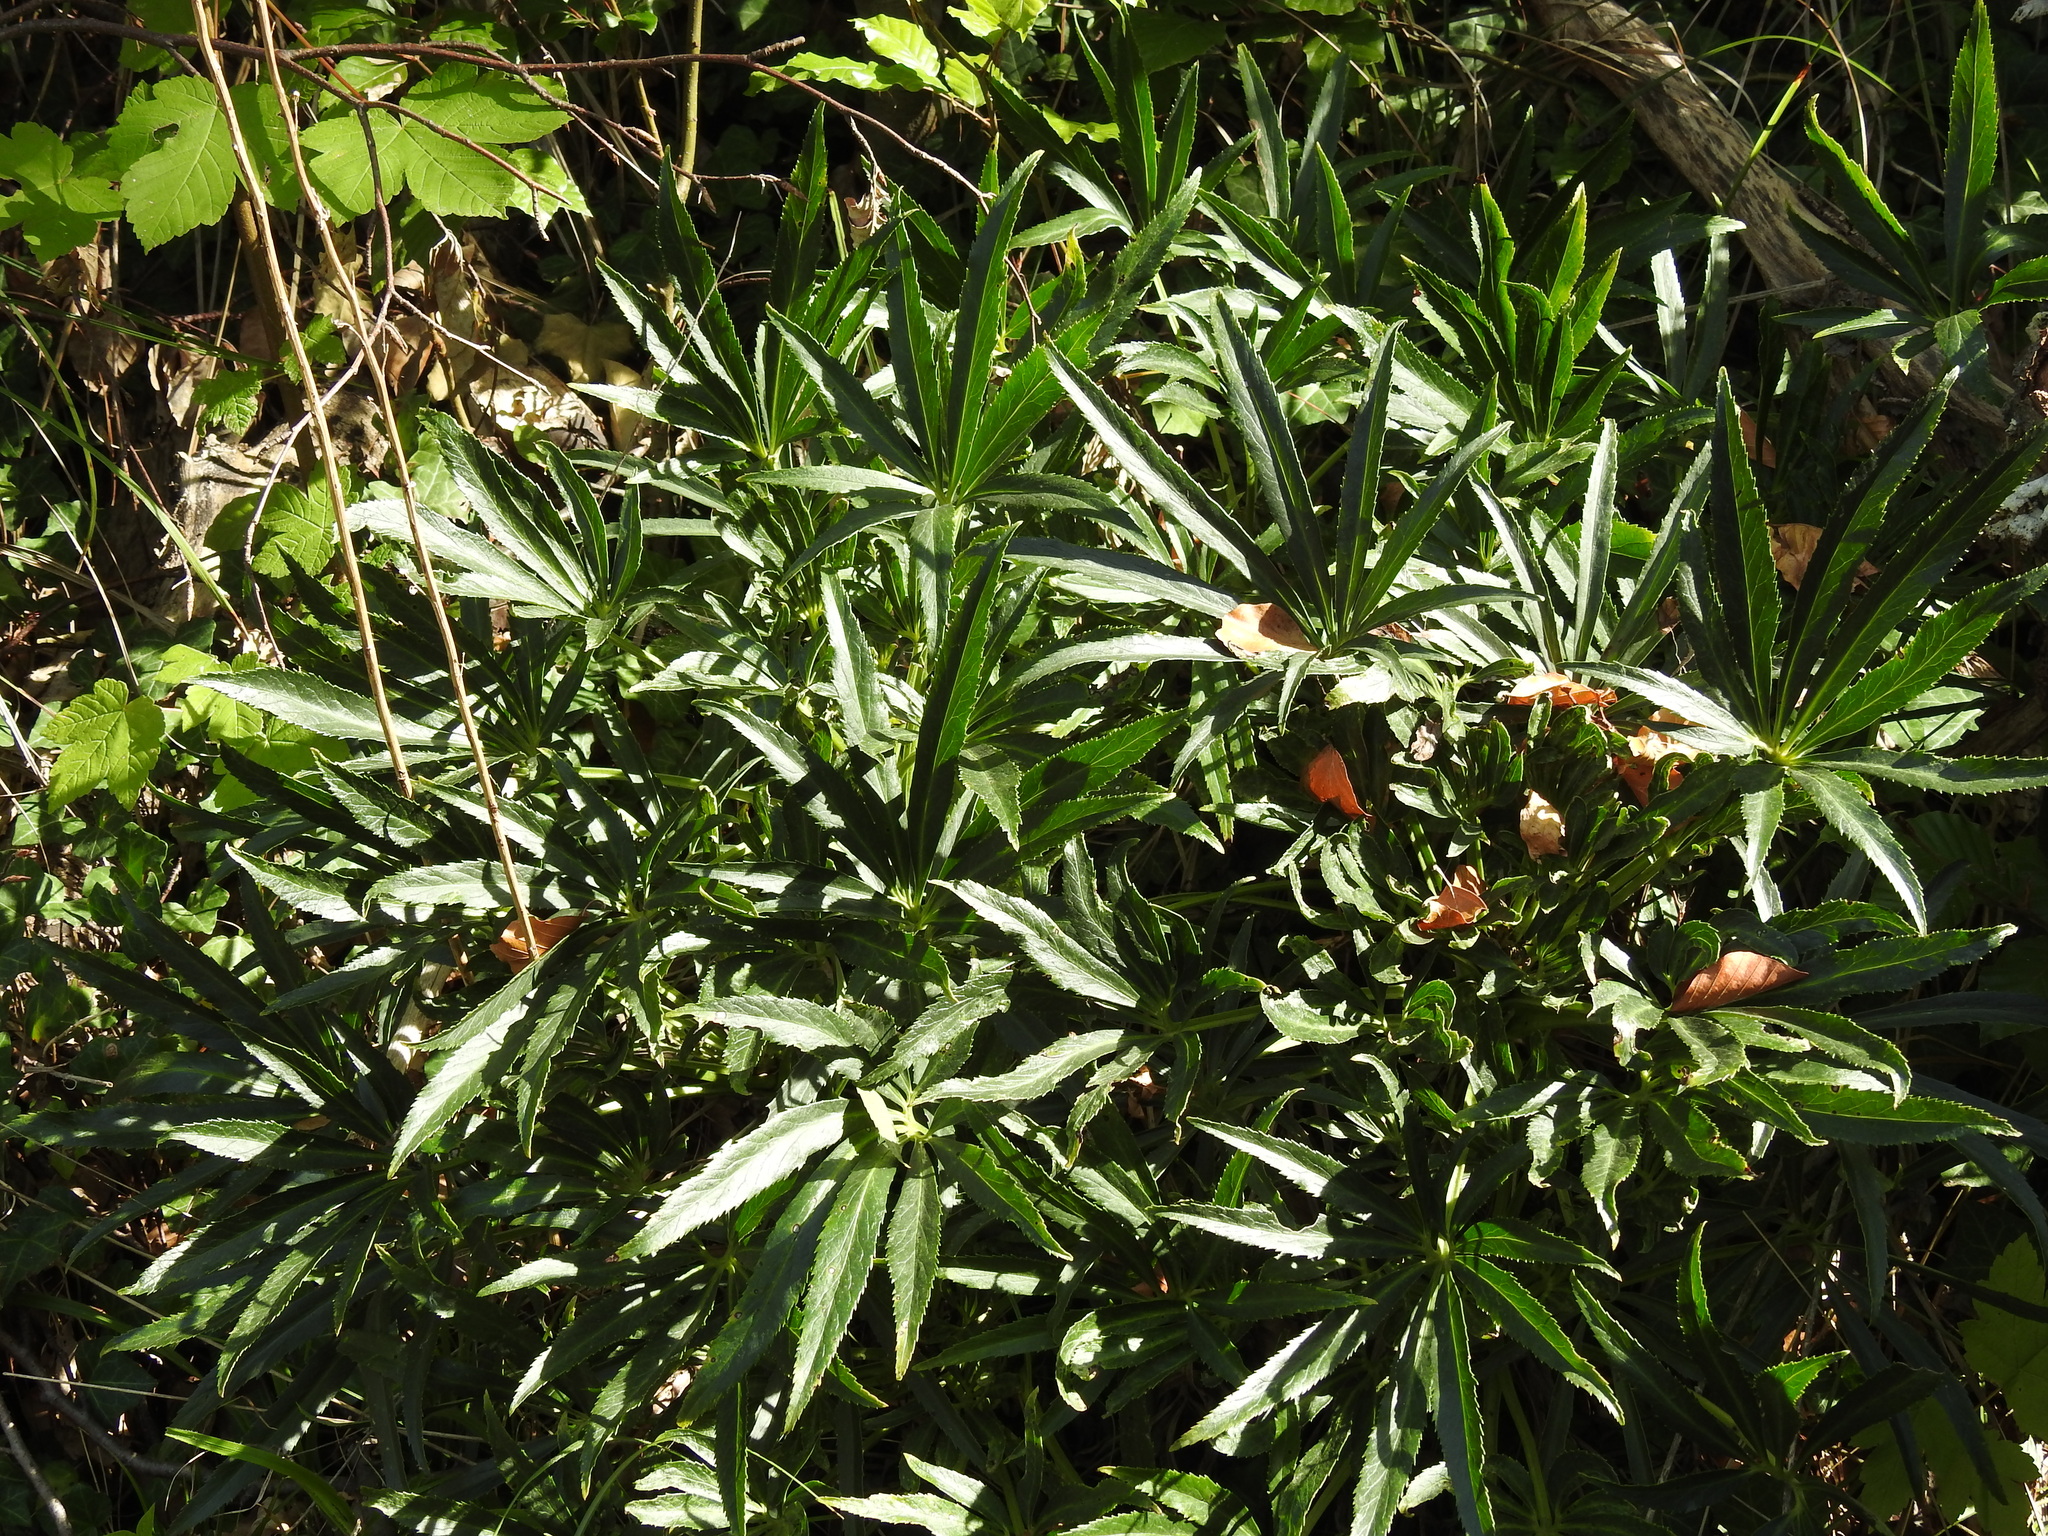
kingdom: Plantae
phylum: Tracheophyta
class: Magnoliopsida
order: Ranunculales
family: Ranunculaceae
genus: Helleborus
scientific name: Helleborus foetidus
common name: Stinking hellebore
